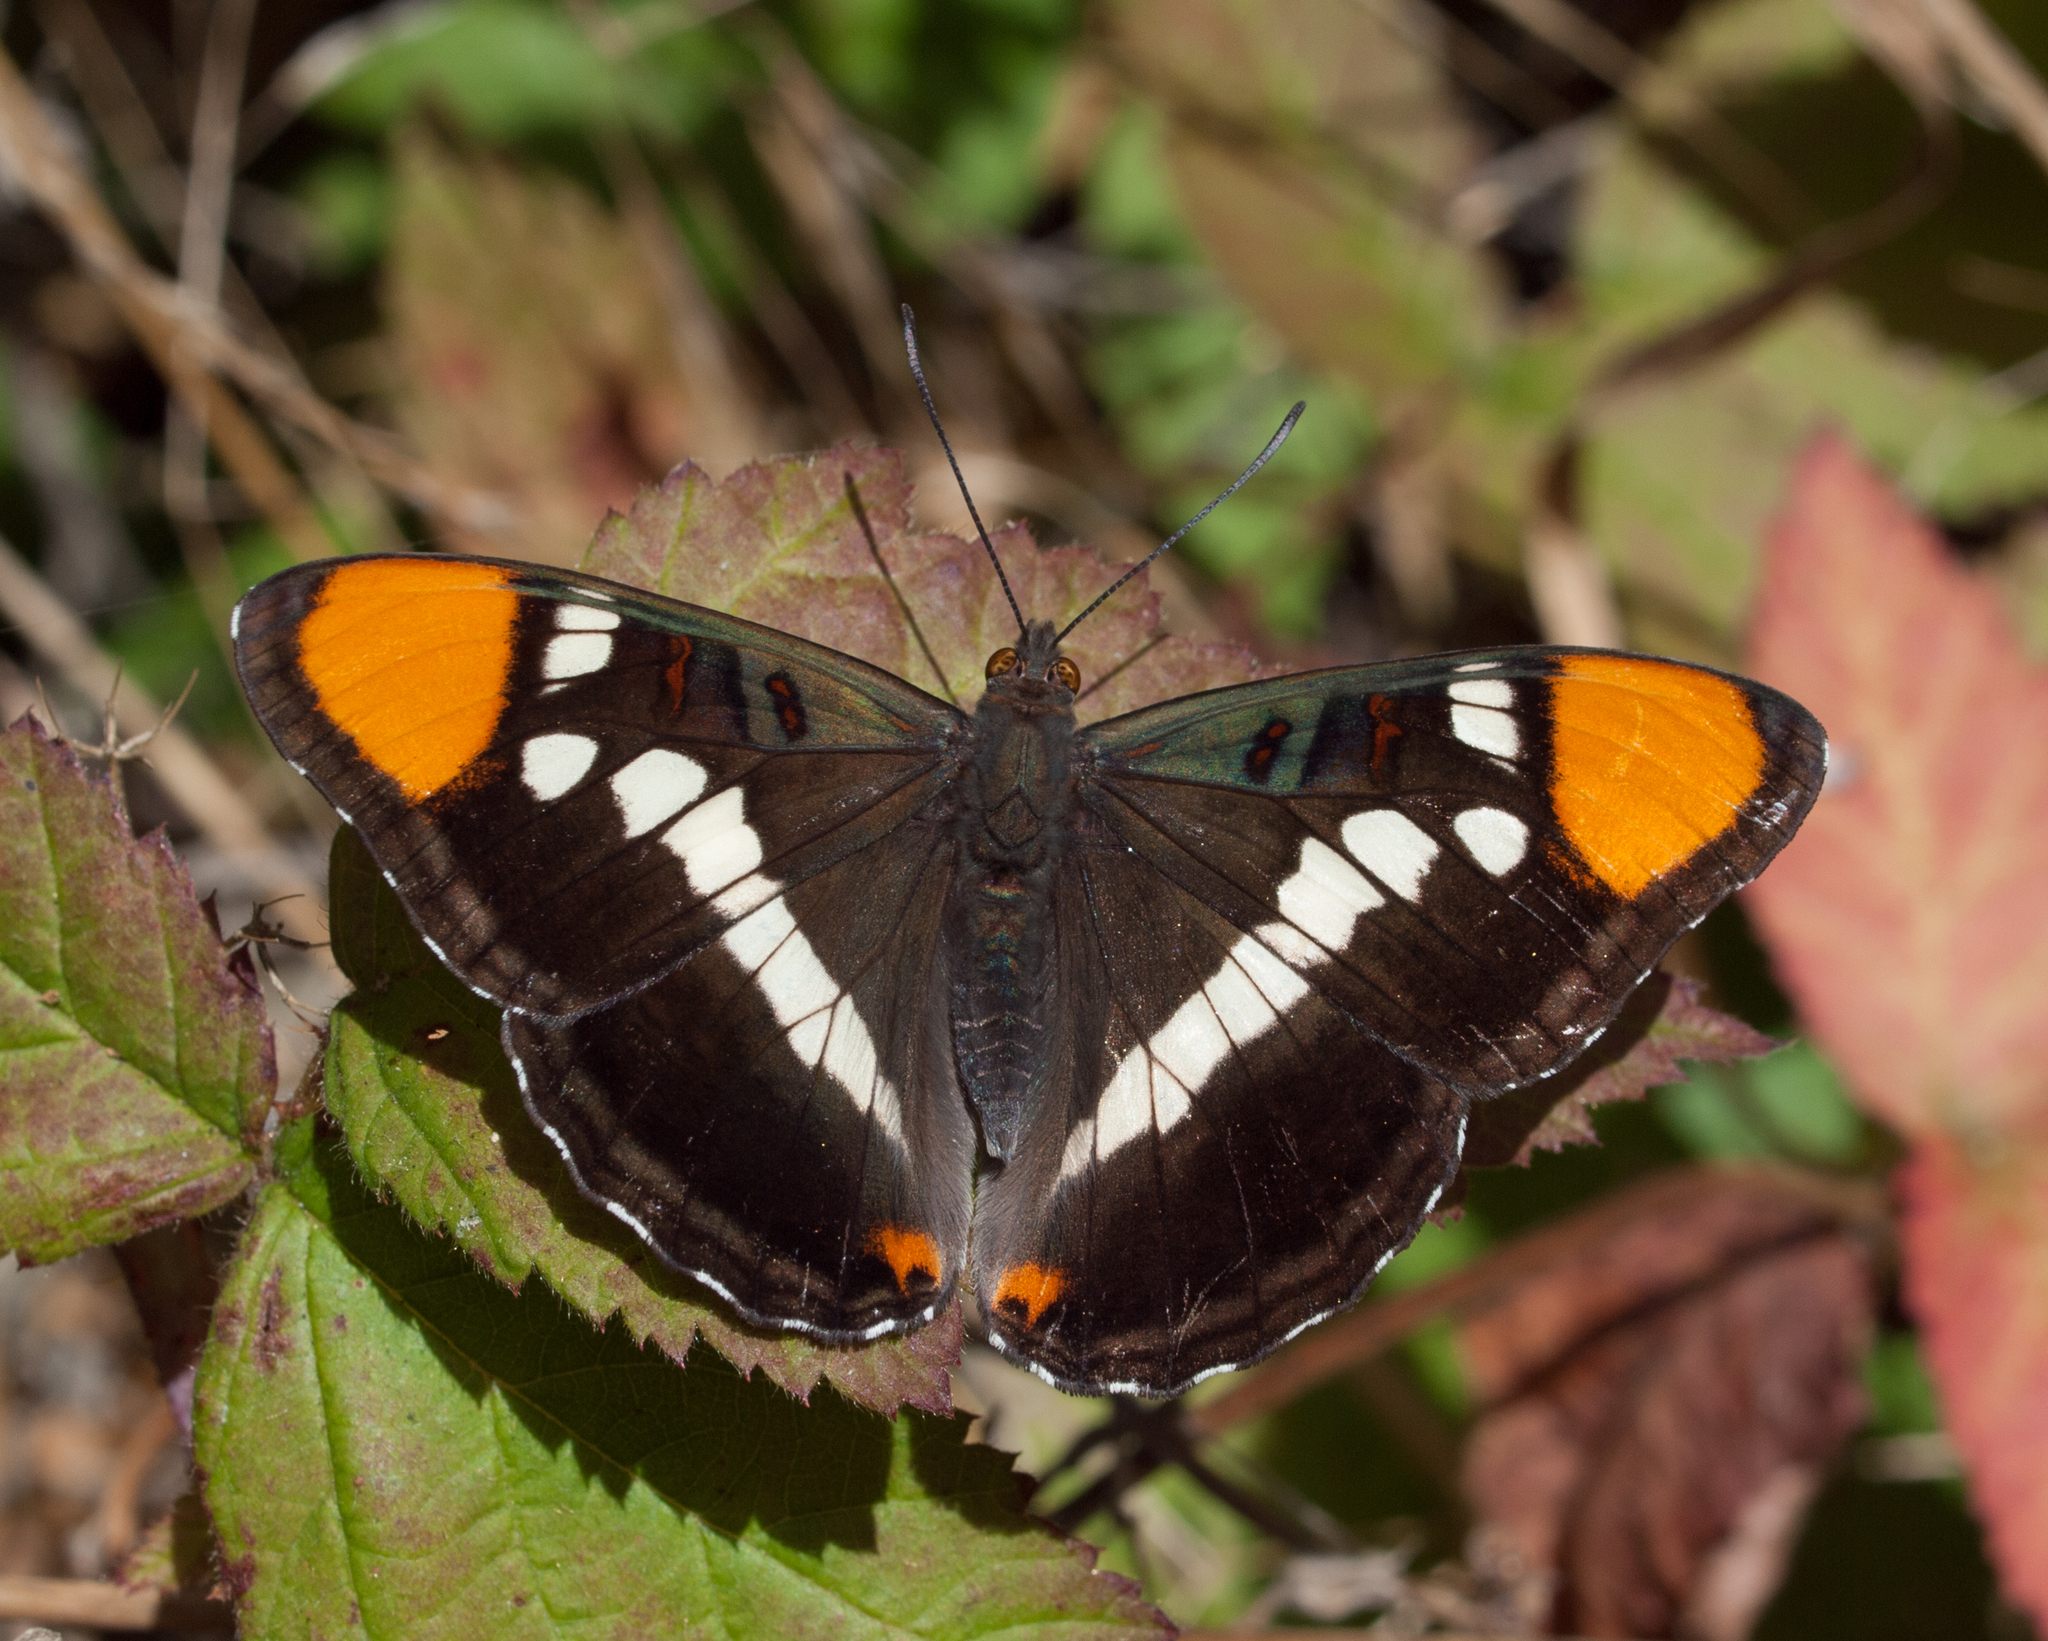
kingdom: Animalia
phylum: Arthropoda
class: Insecta
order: Lepidoptera
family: Nymphalidae
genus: Limenitis
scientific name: Limenitis bredowii
